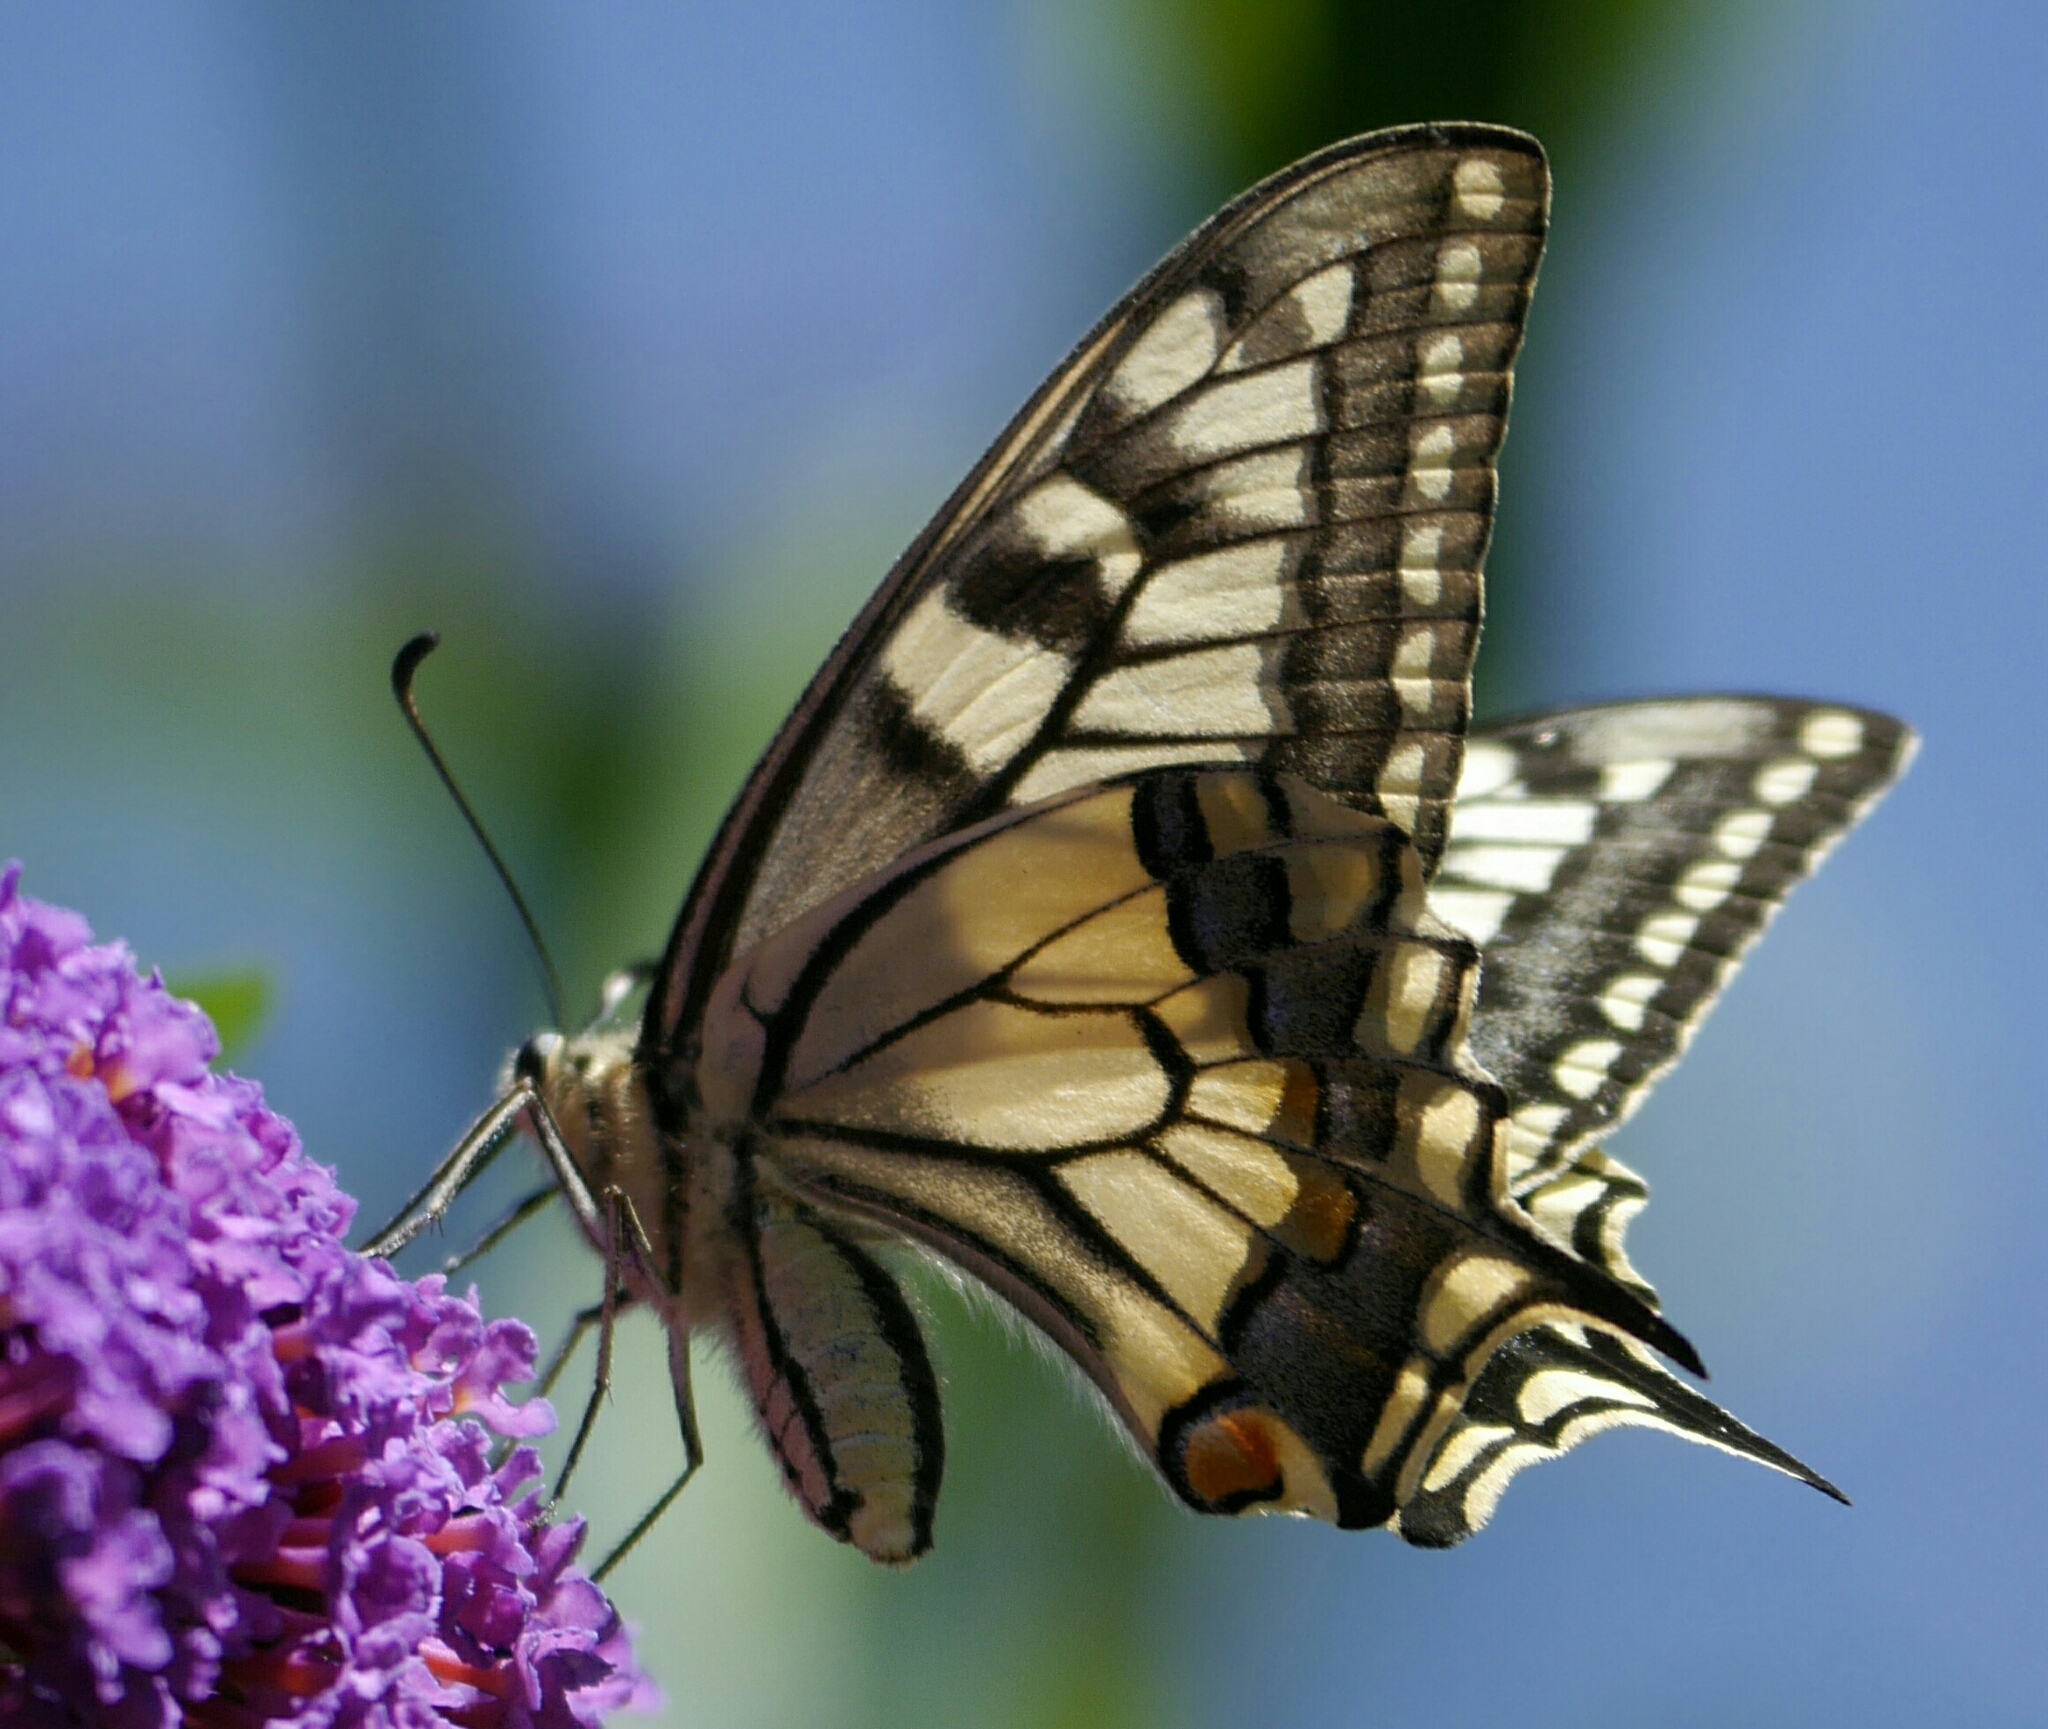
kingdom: Animalia
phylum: Arthropoda
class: Insecta
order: Lepidoptera
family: Papilionidae
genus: Papilio
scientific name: Papilio machaon
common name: Swallowtail
